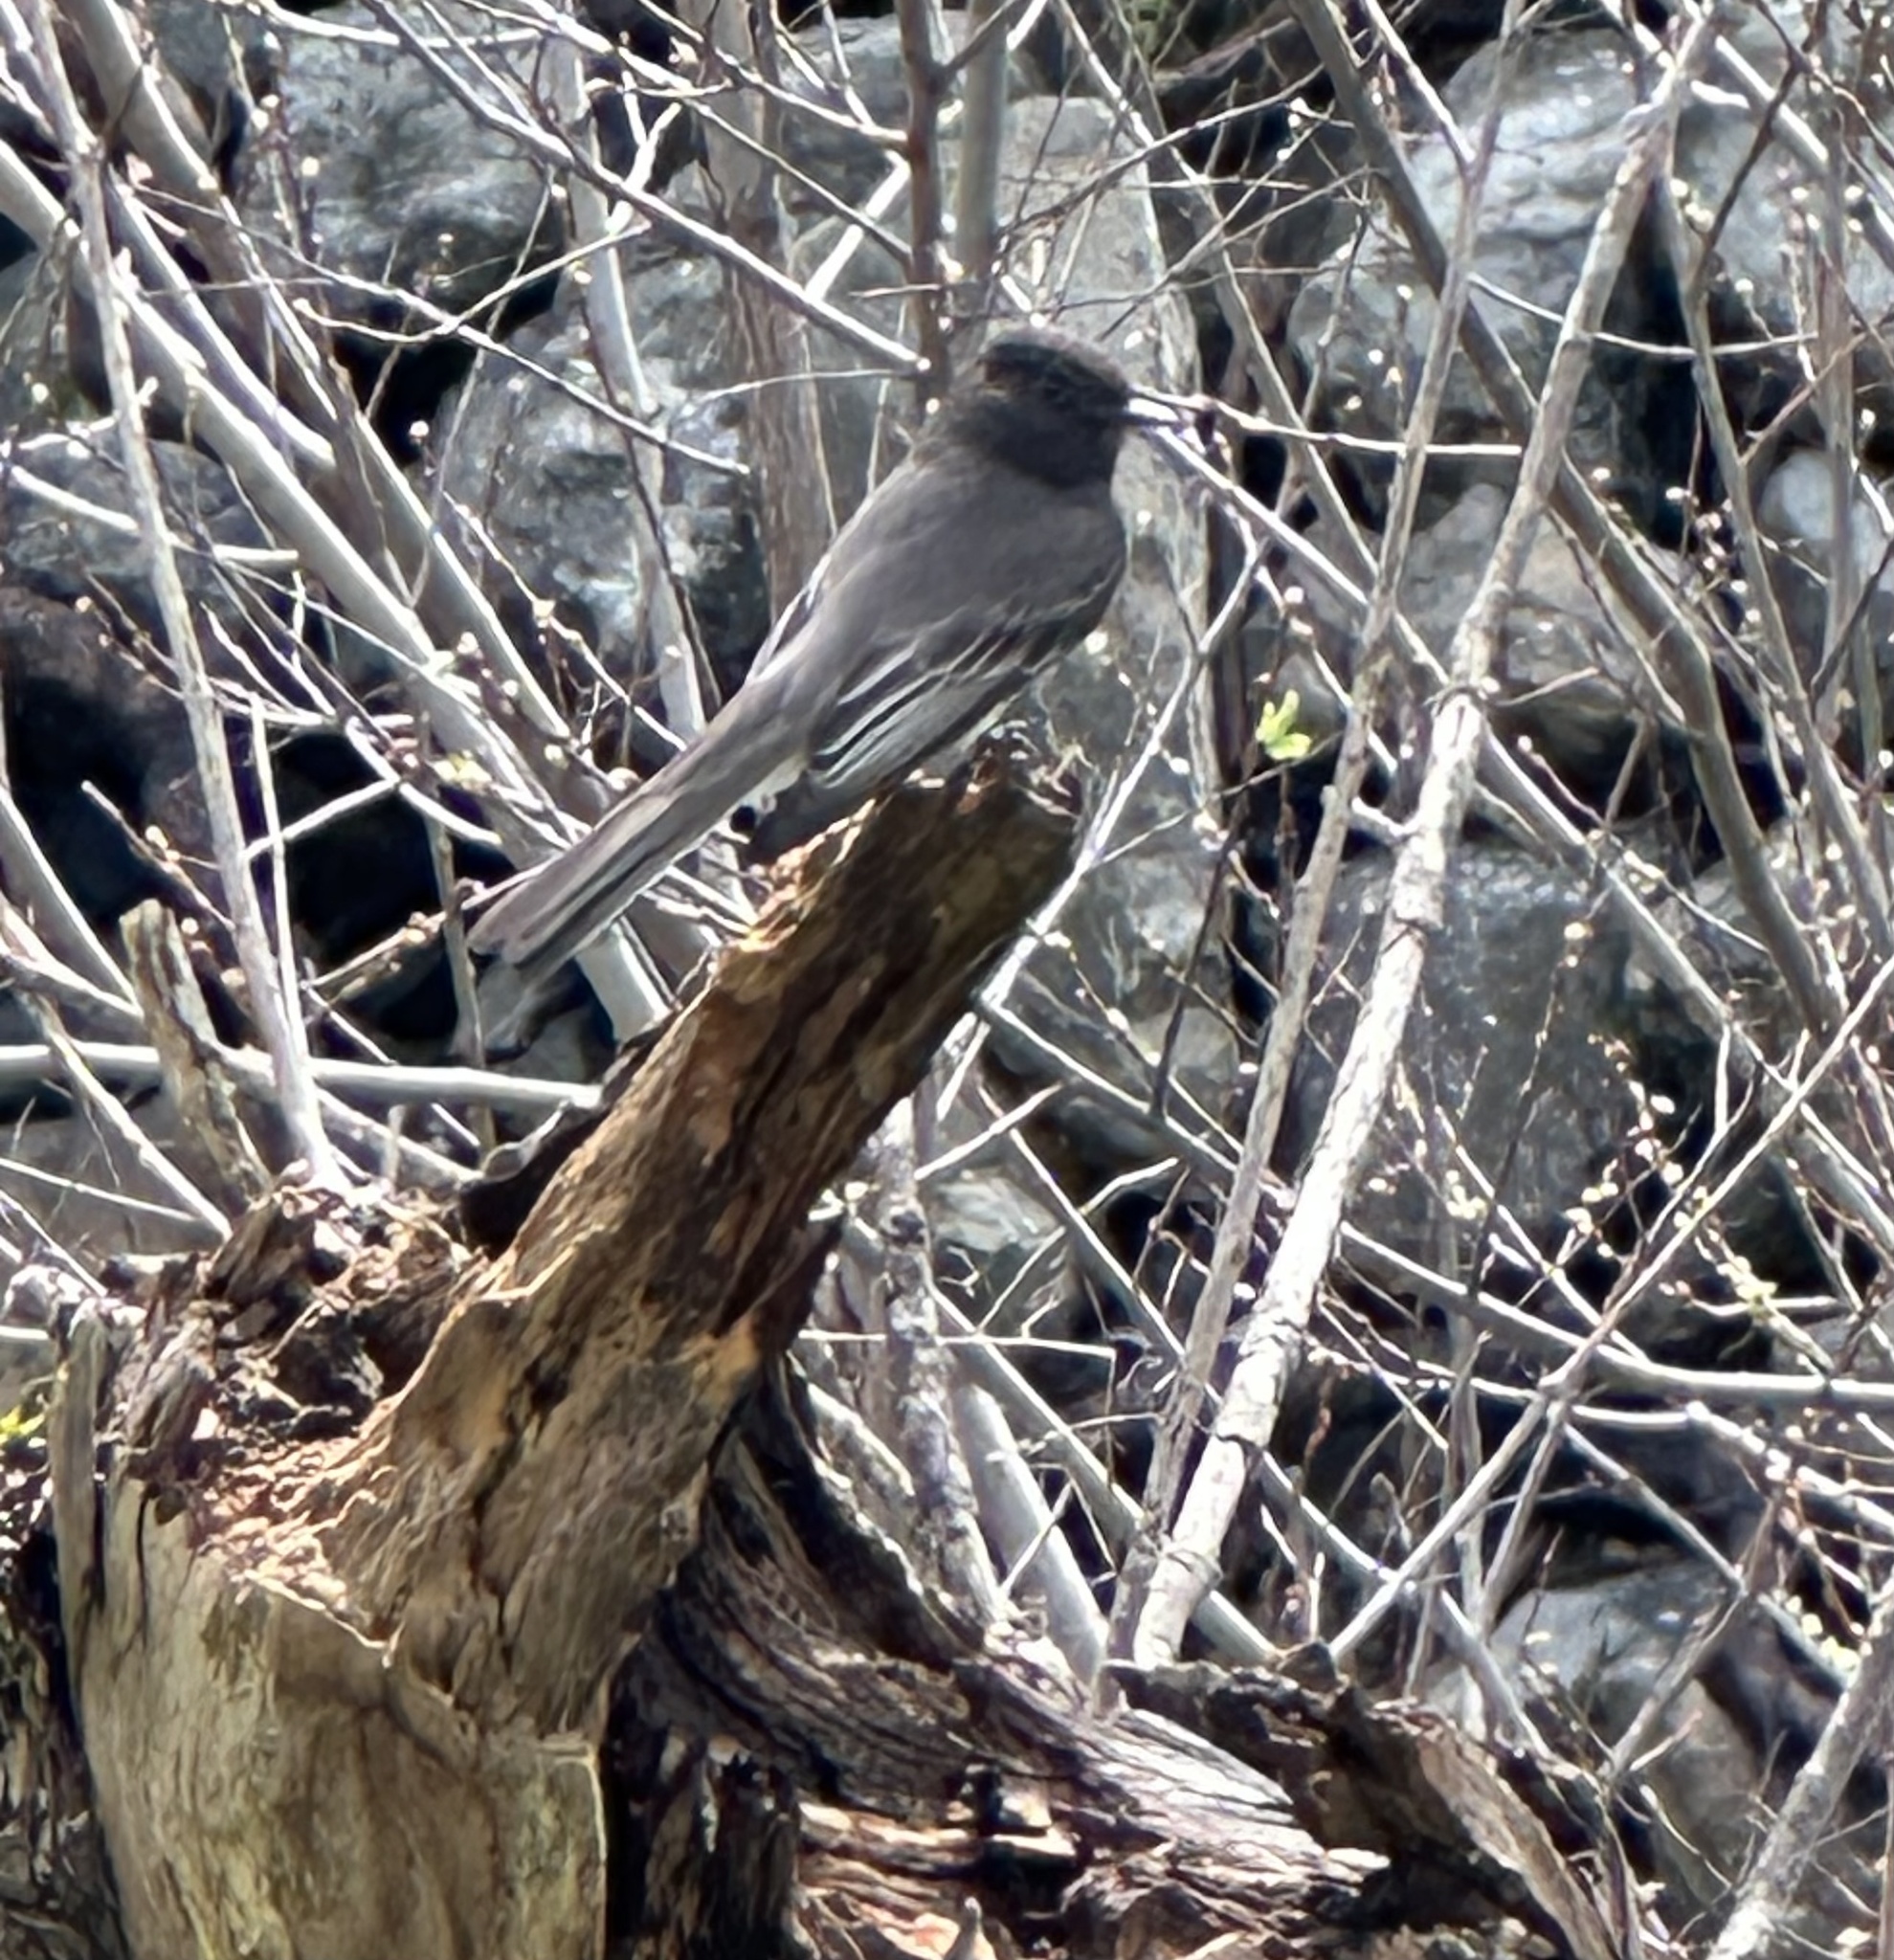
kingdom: Animalia
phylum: Chordata
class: Aves
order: Passeriformes
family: Tyrannidae
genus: Sayornis
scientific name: Sayornis nigricans
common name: Black phoebe
